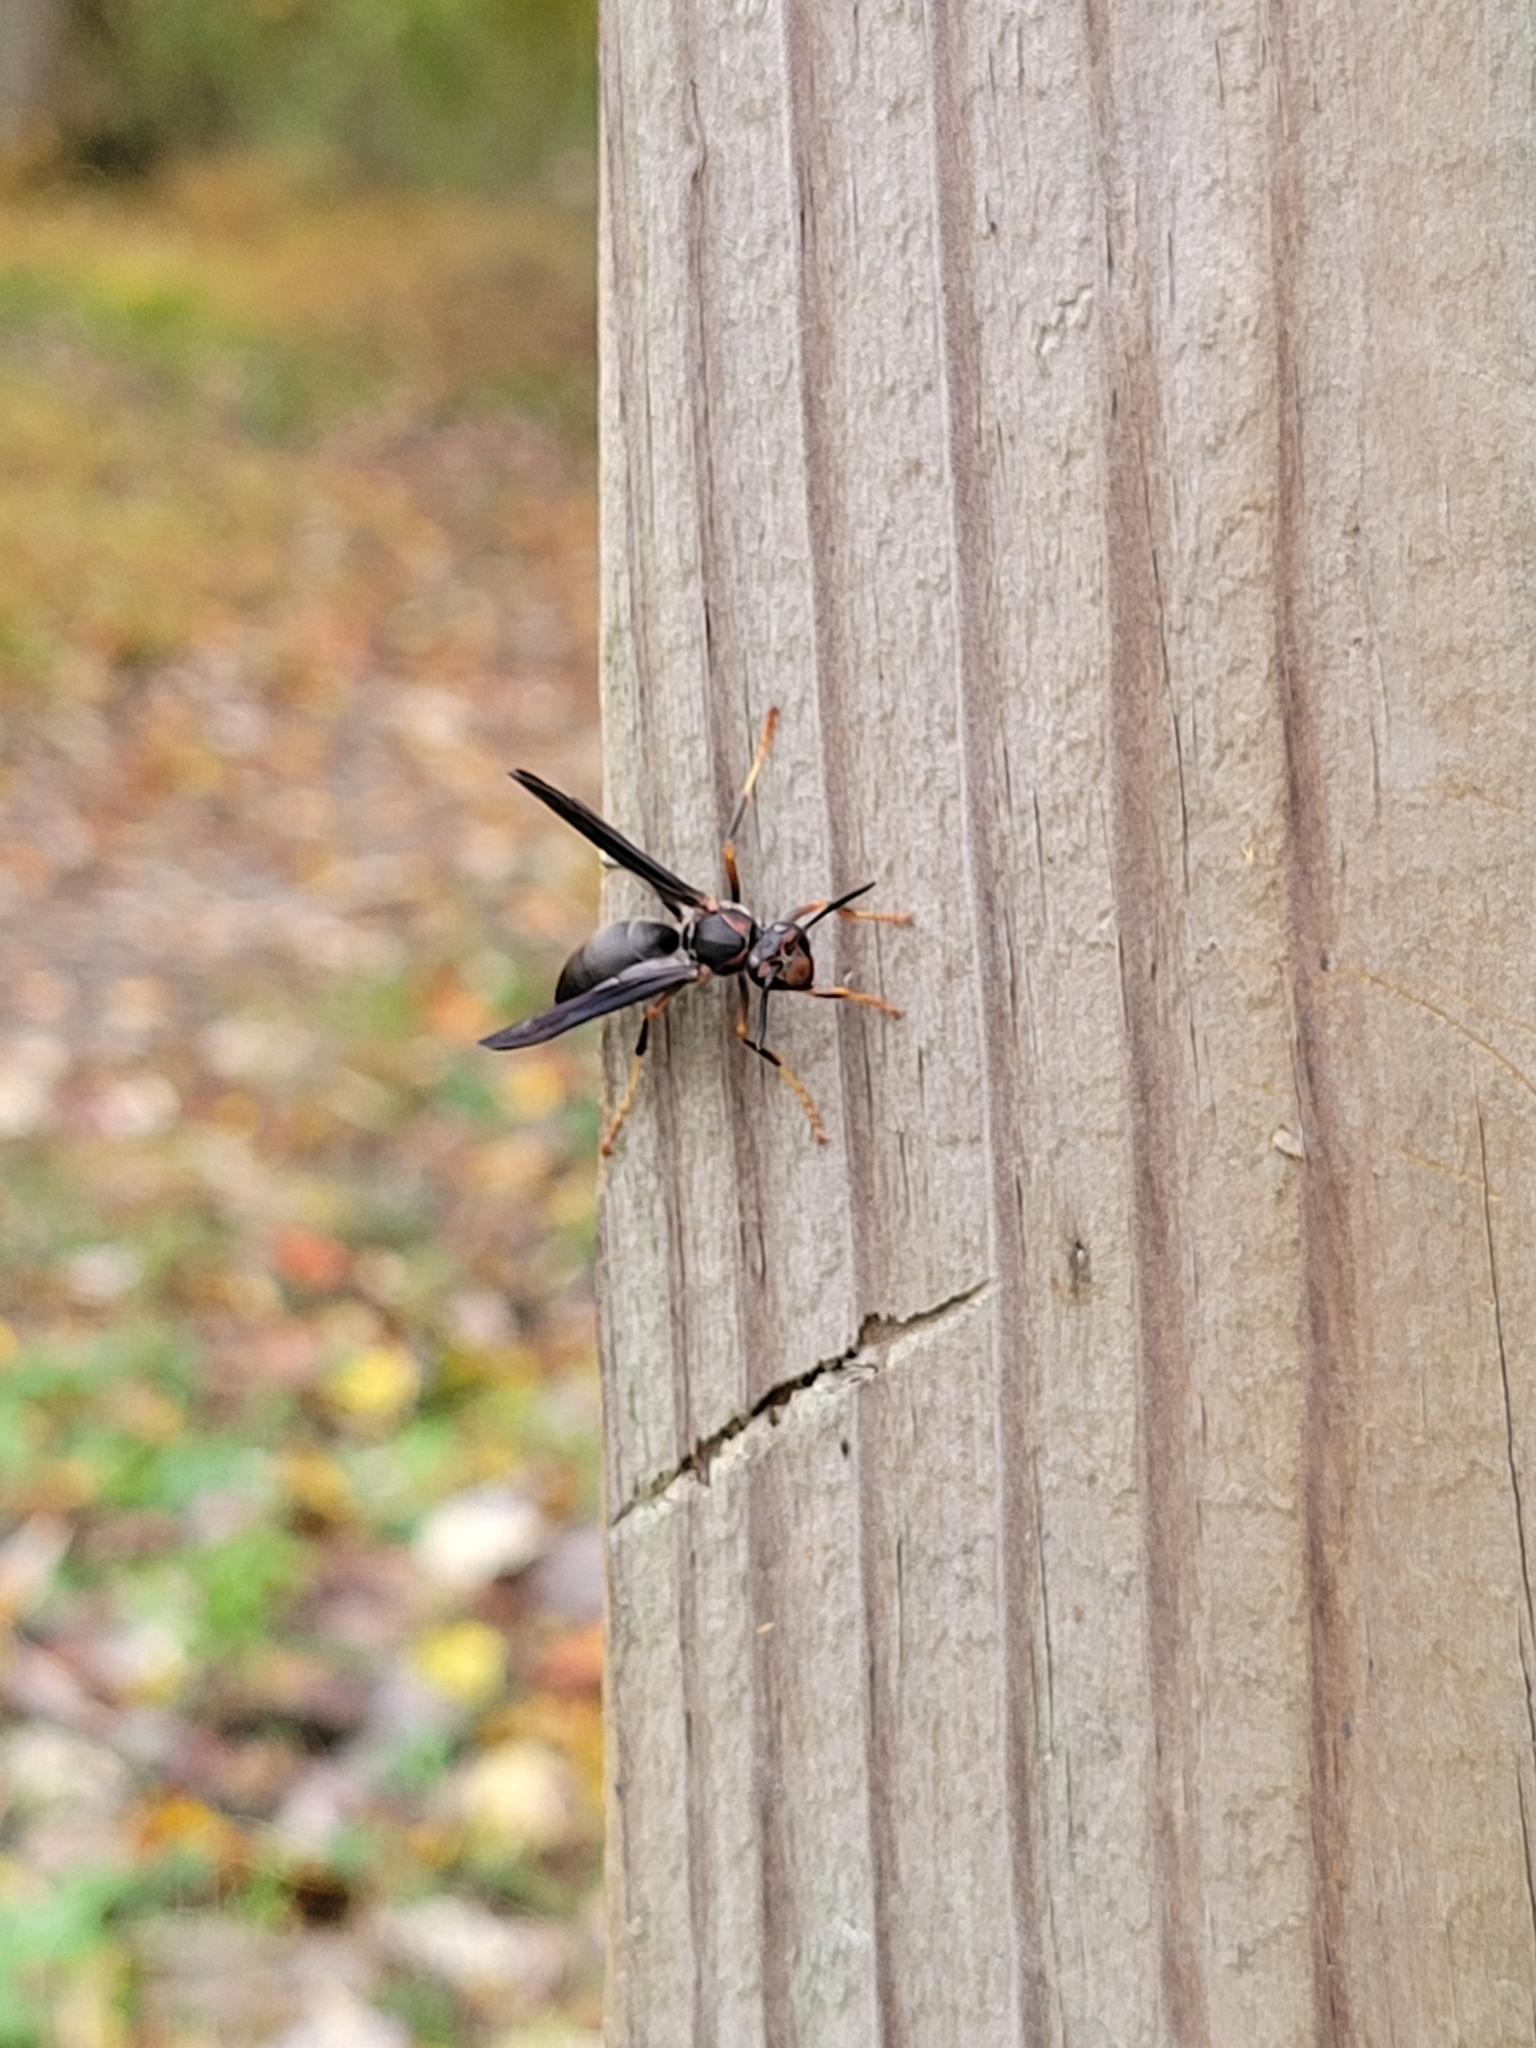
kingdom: Animalia
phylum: Arthropoda
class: Insecta
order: Hymenoptera
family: Eumenidae
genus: Polistes
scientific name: Polistes metricus
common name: Metric paper wasp
